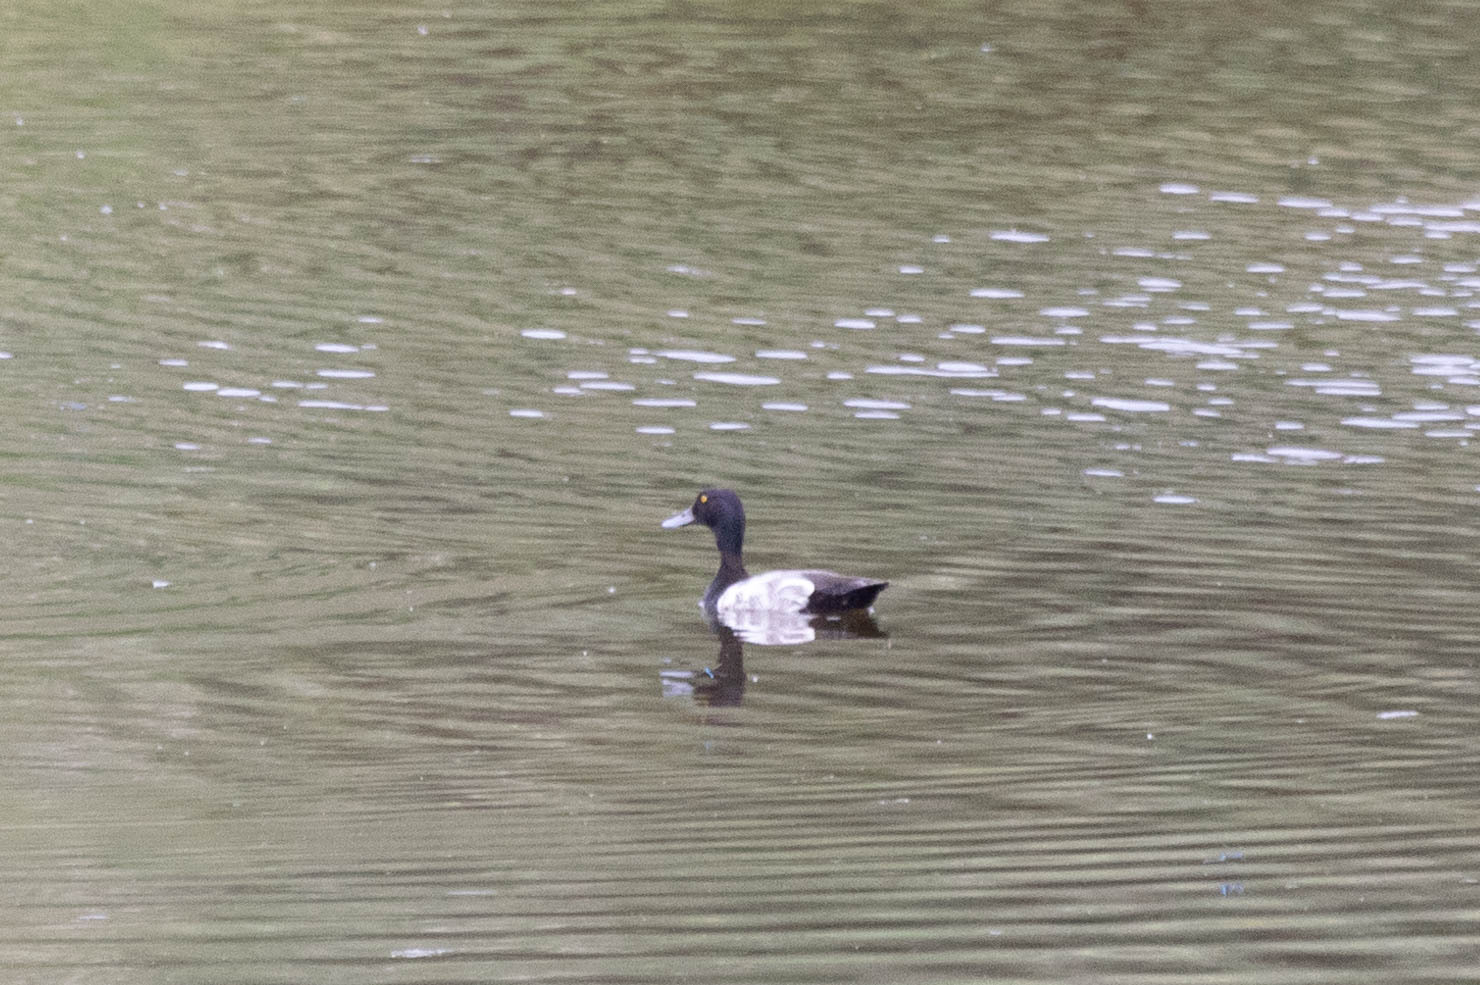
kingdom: Animalia
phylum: Chordata
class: Aves
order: Anseriformes
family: Anatidae
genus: Aythya
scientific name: Aythya marila
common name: Greater scaup
